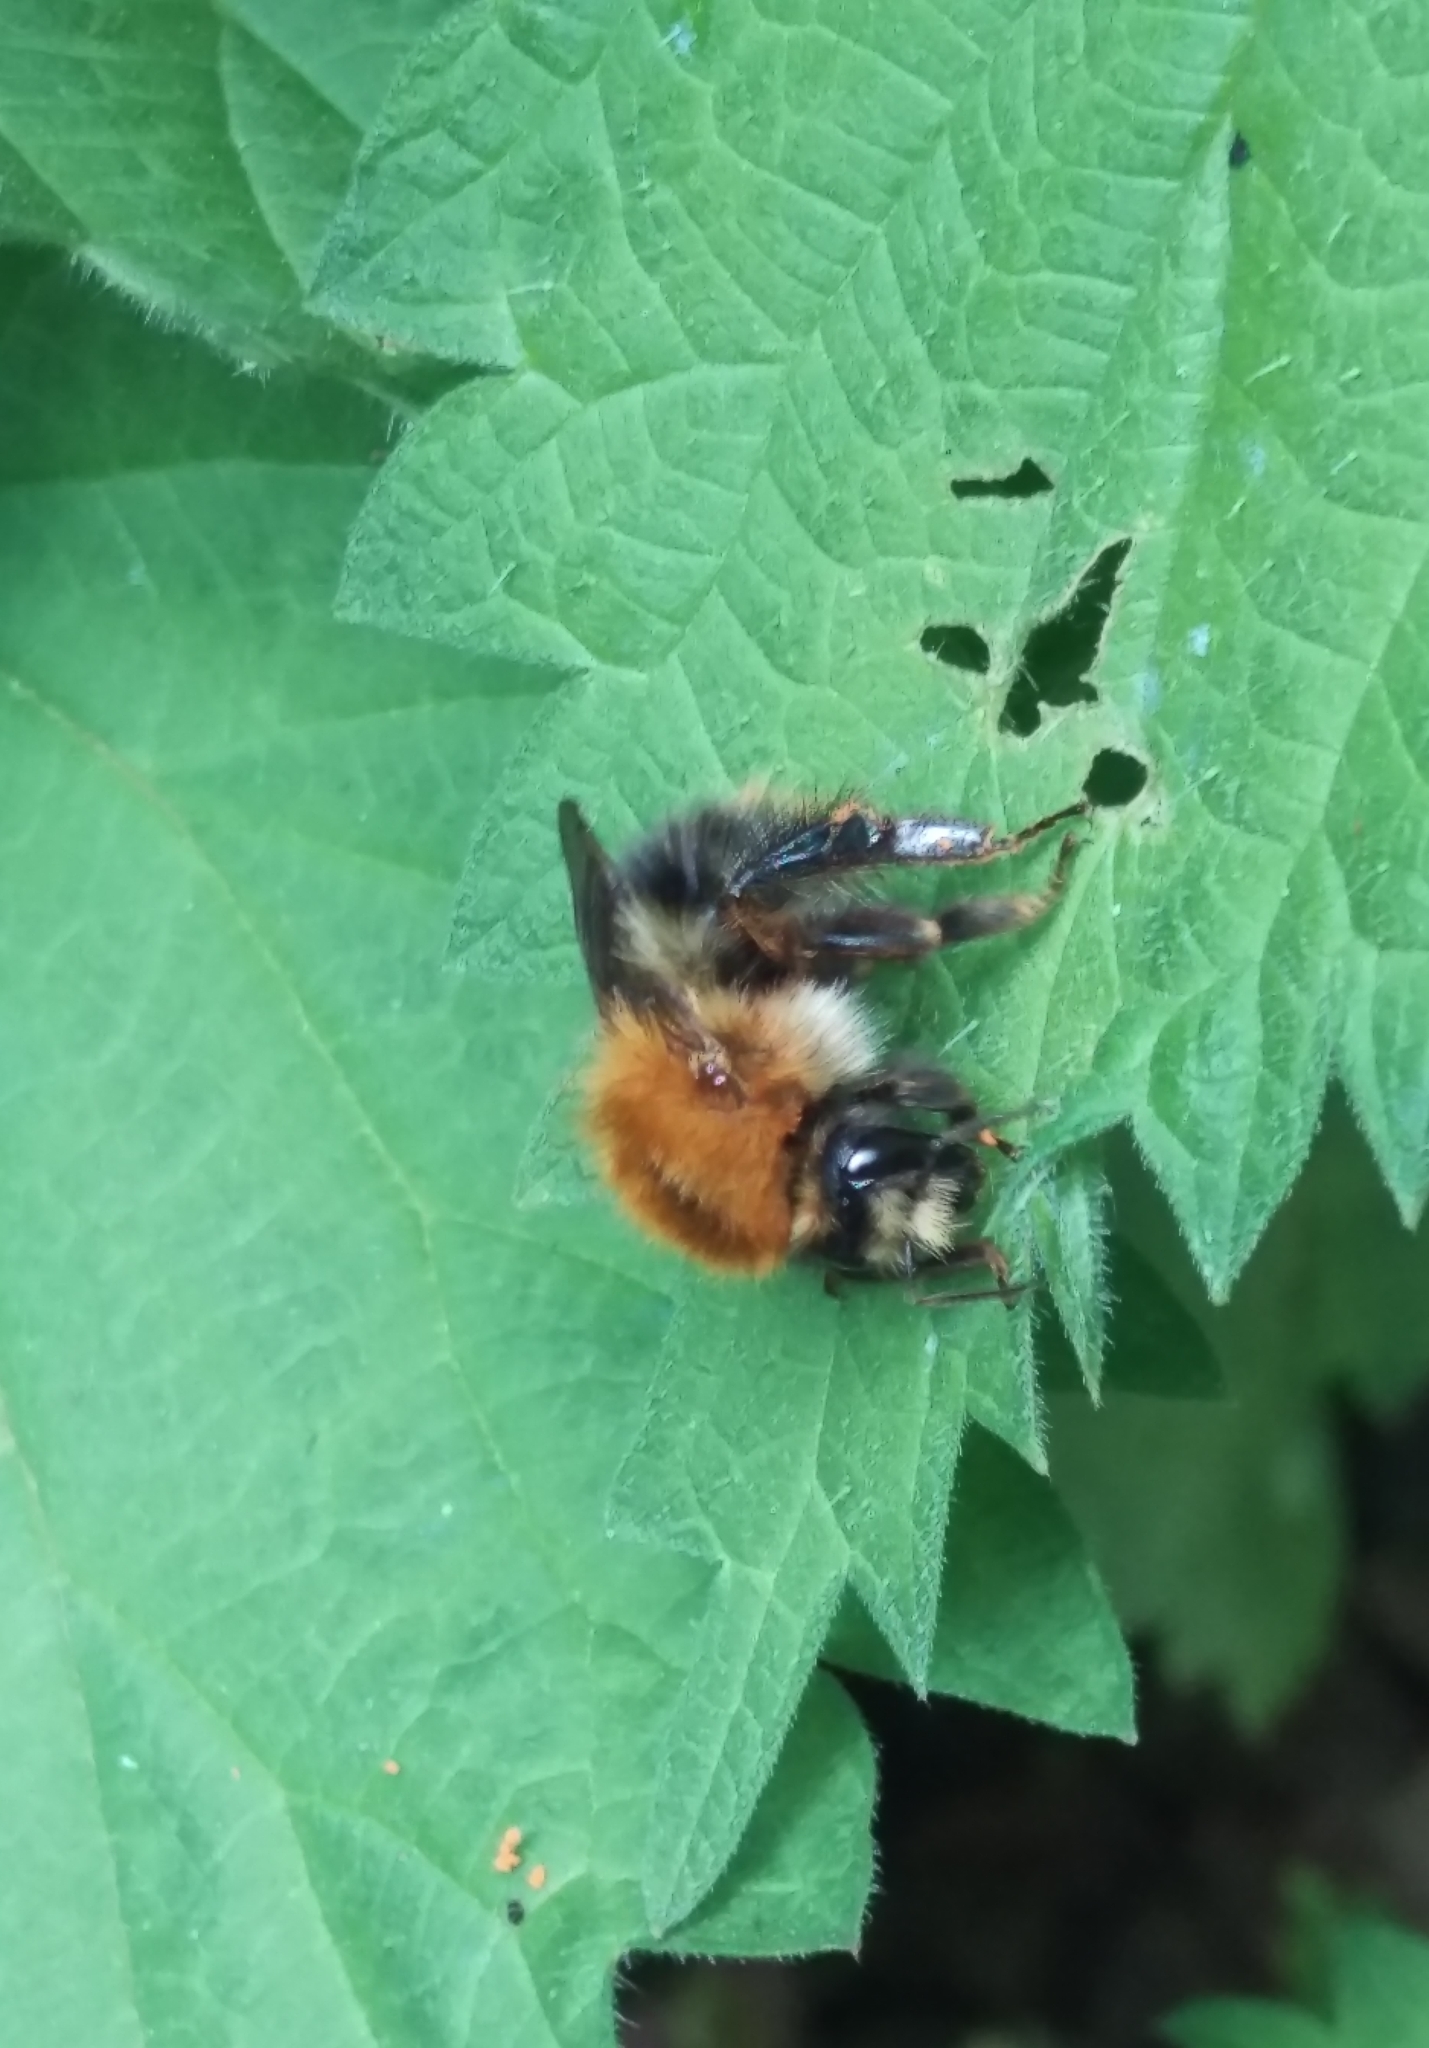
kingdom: Animalia
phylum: Arthropoda
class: Insecta
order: Hymenoptera
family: Apidae
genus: Bombus
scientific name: Bombus pascuorum
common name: Common carder bee
